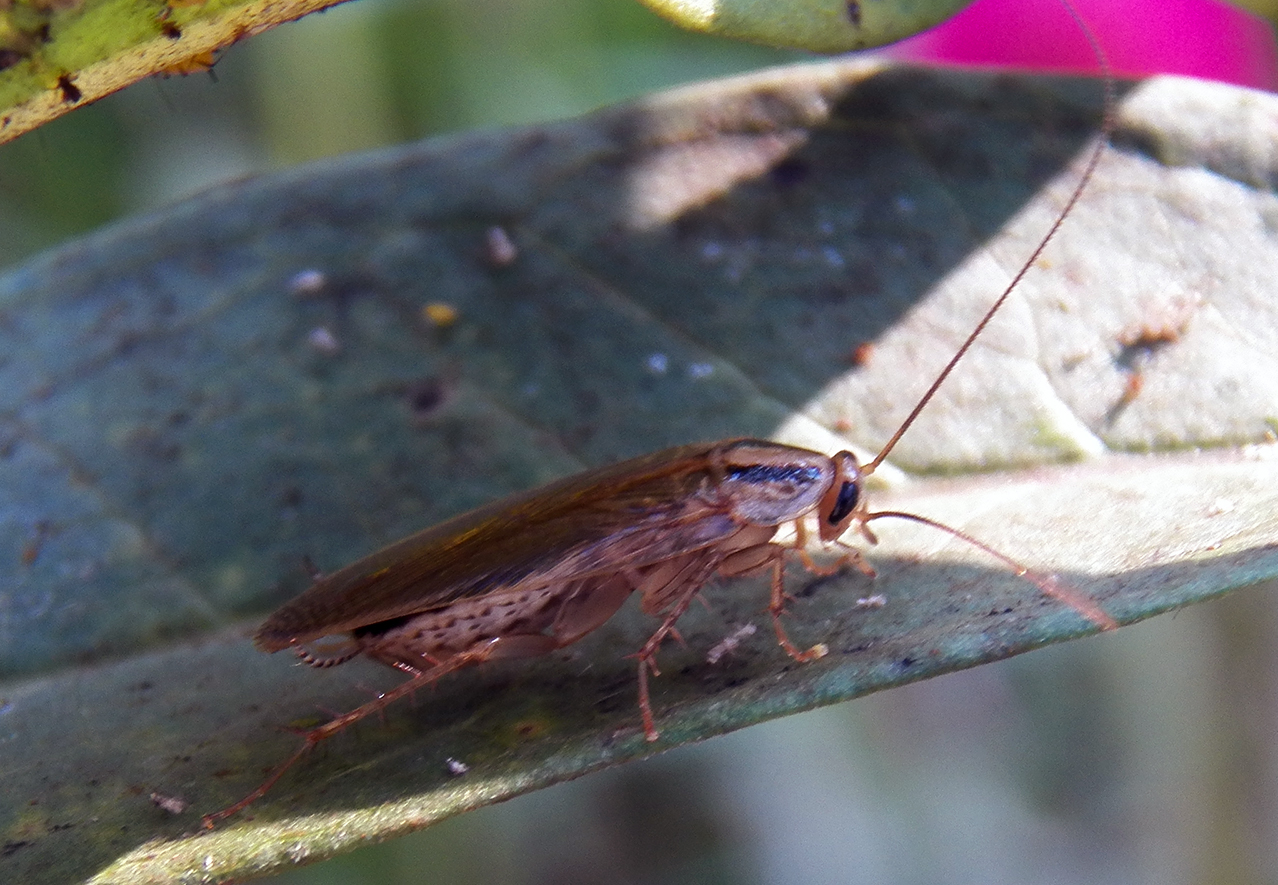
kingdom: Animalia
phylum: Arthropoda
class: Insecta
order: Blattodea
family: Ectobiidae
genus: Blattella
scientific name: Blattella germanica
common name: German cockroach
